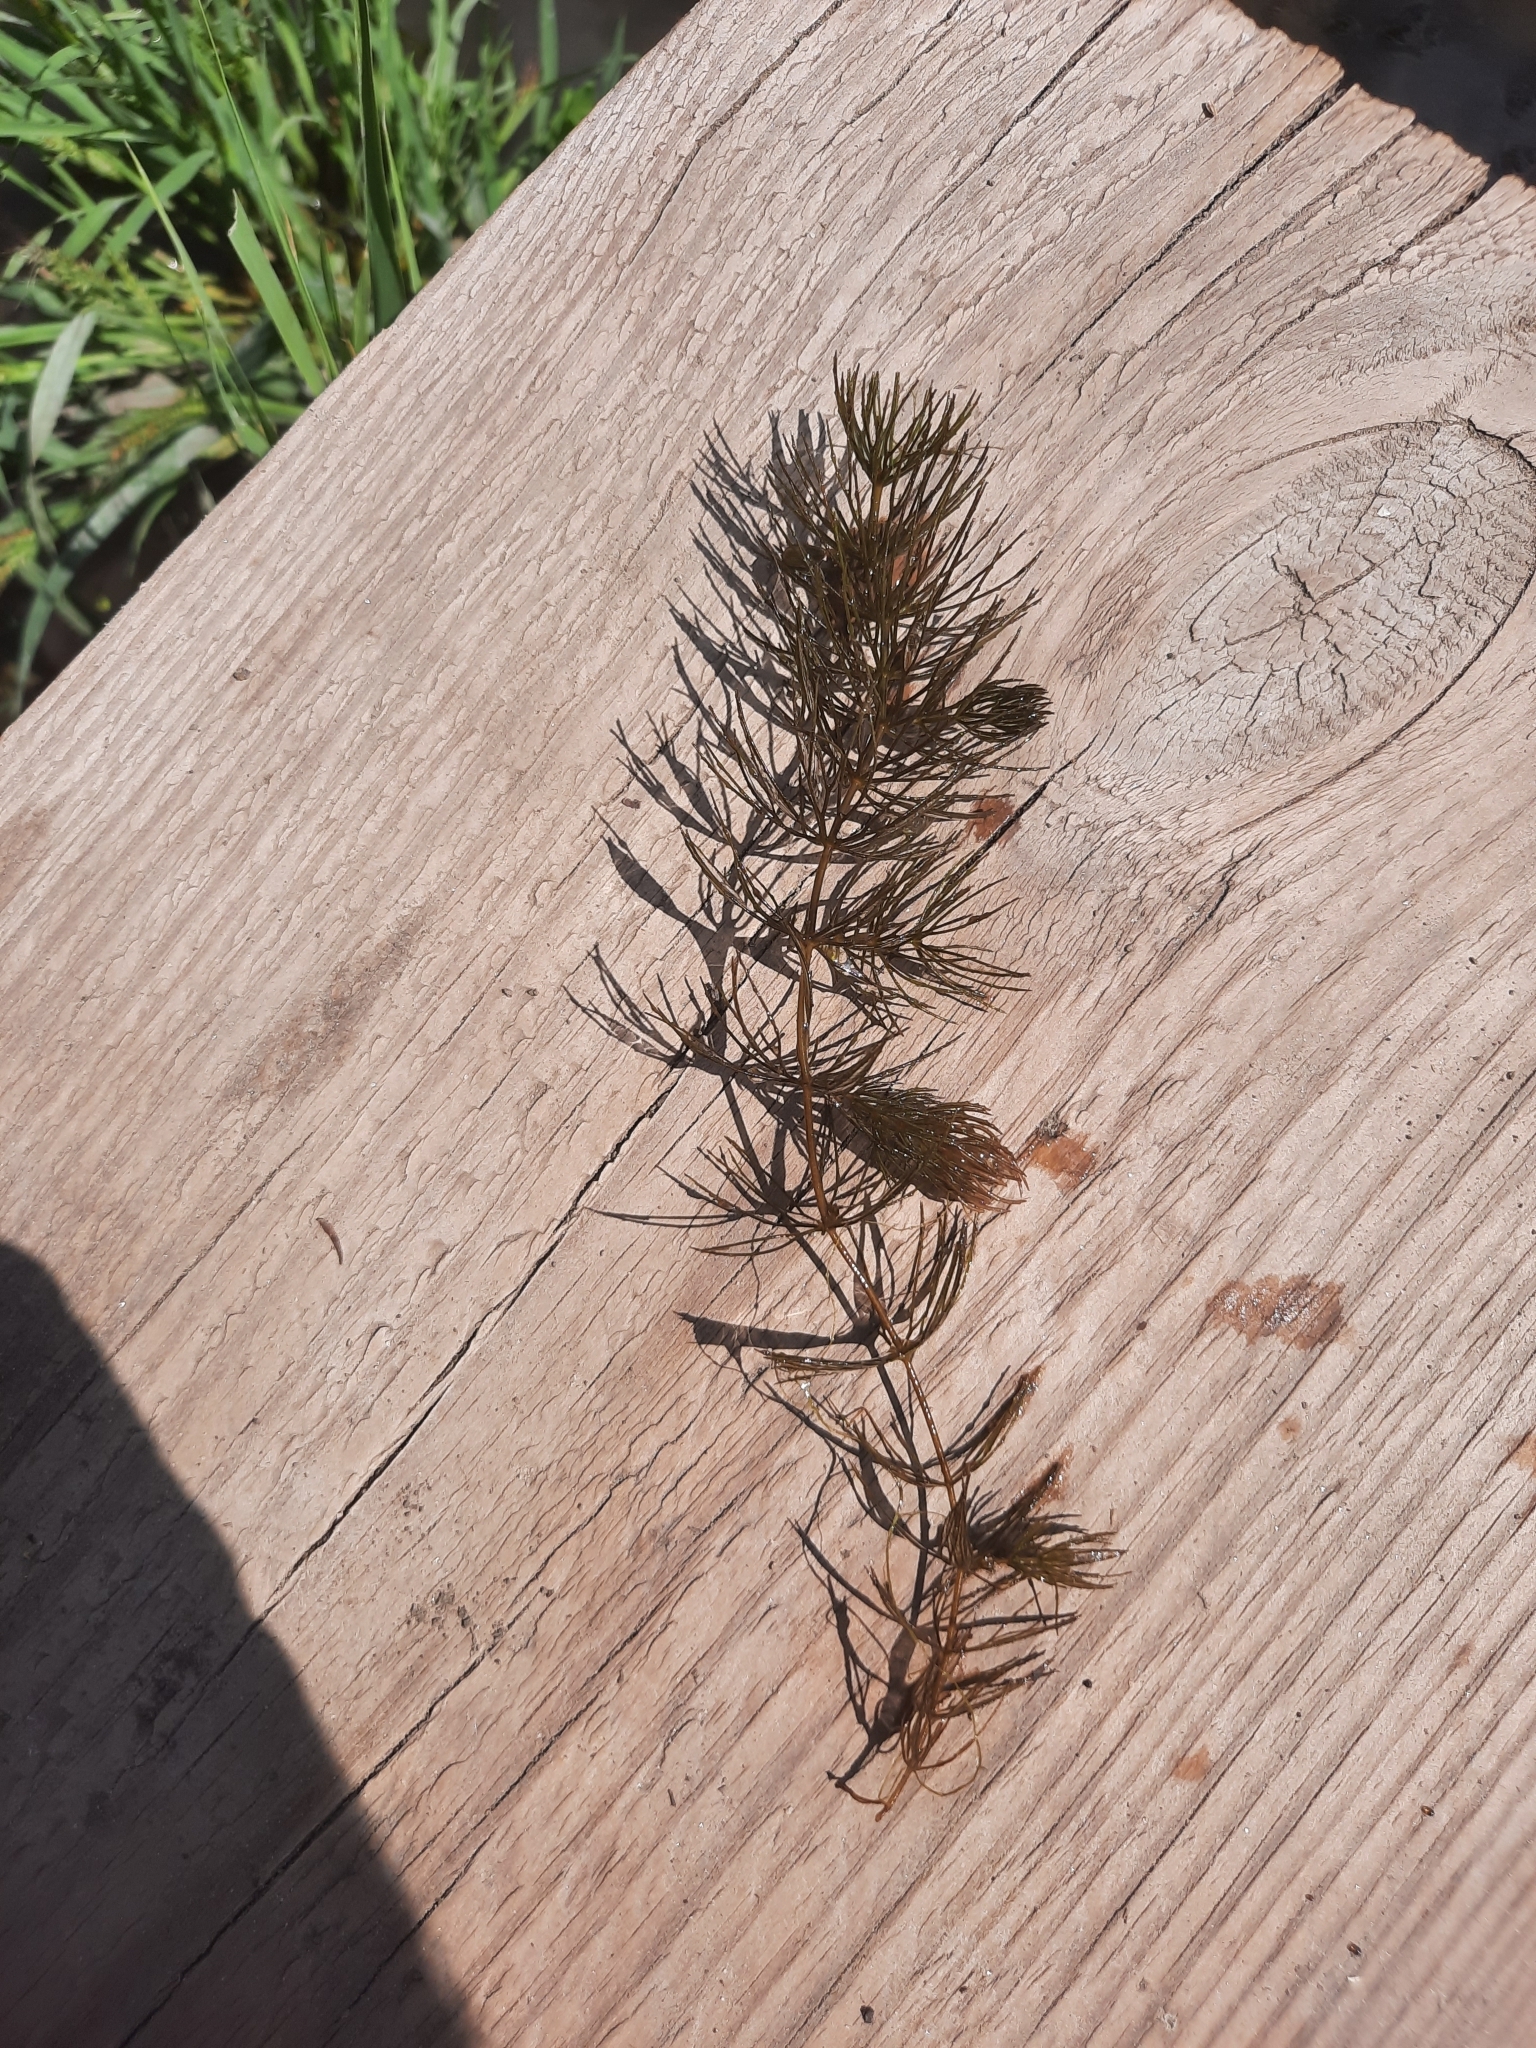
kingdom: Plantae
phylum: Tracheophyta
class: Magnoliopsida
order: Ceratophyllales
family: Ceratophyllaceae
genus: Ceratophyllum
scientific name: Ceratophyllum demersum
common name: Rigid hornwort
